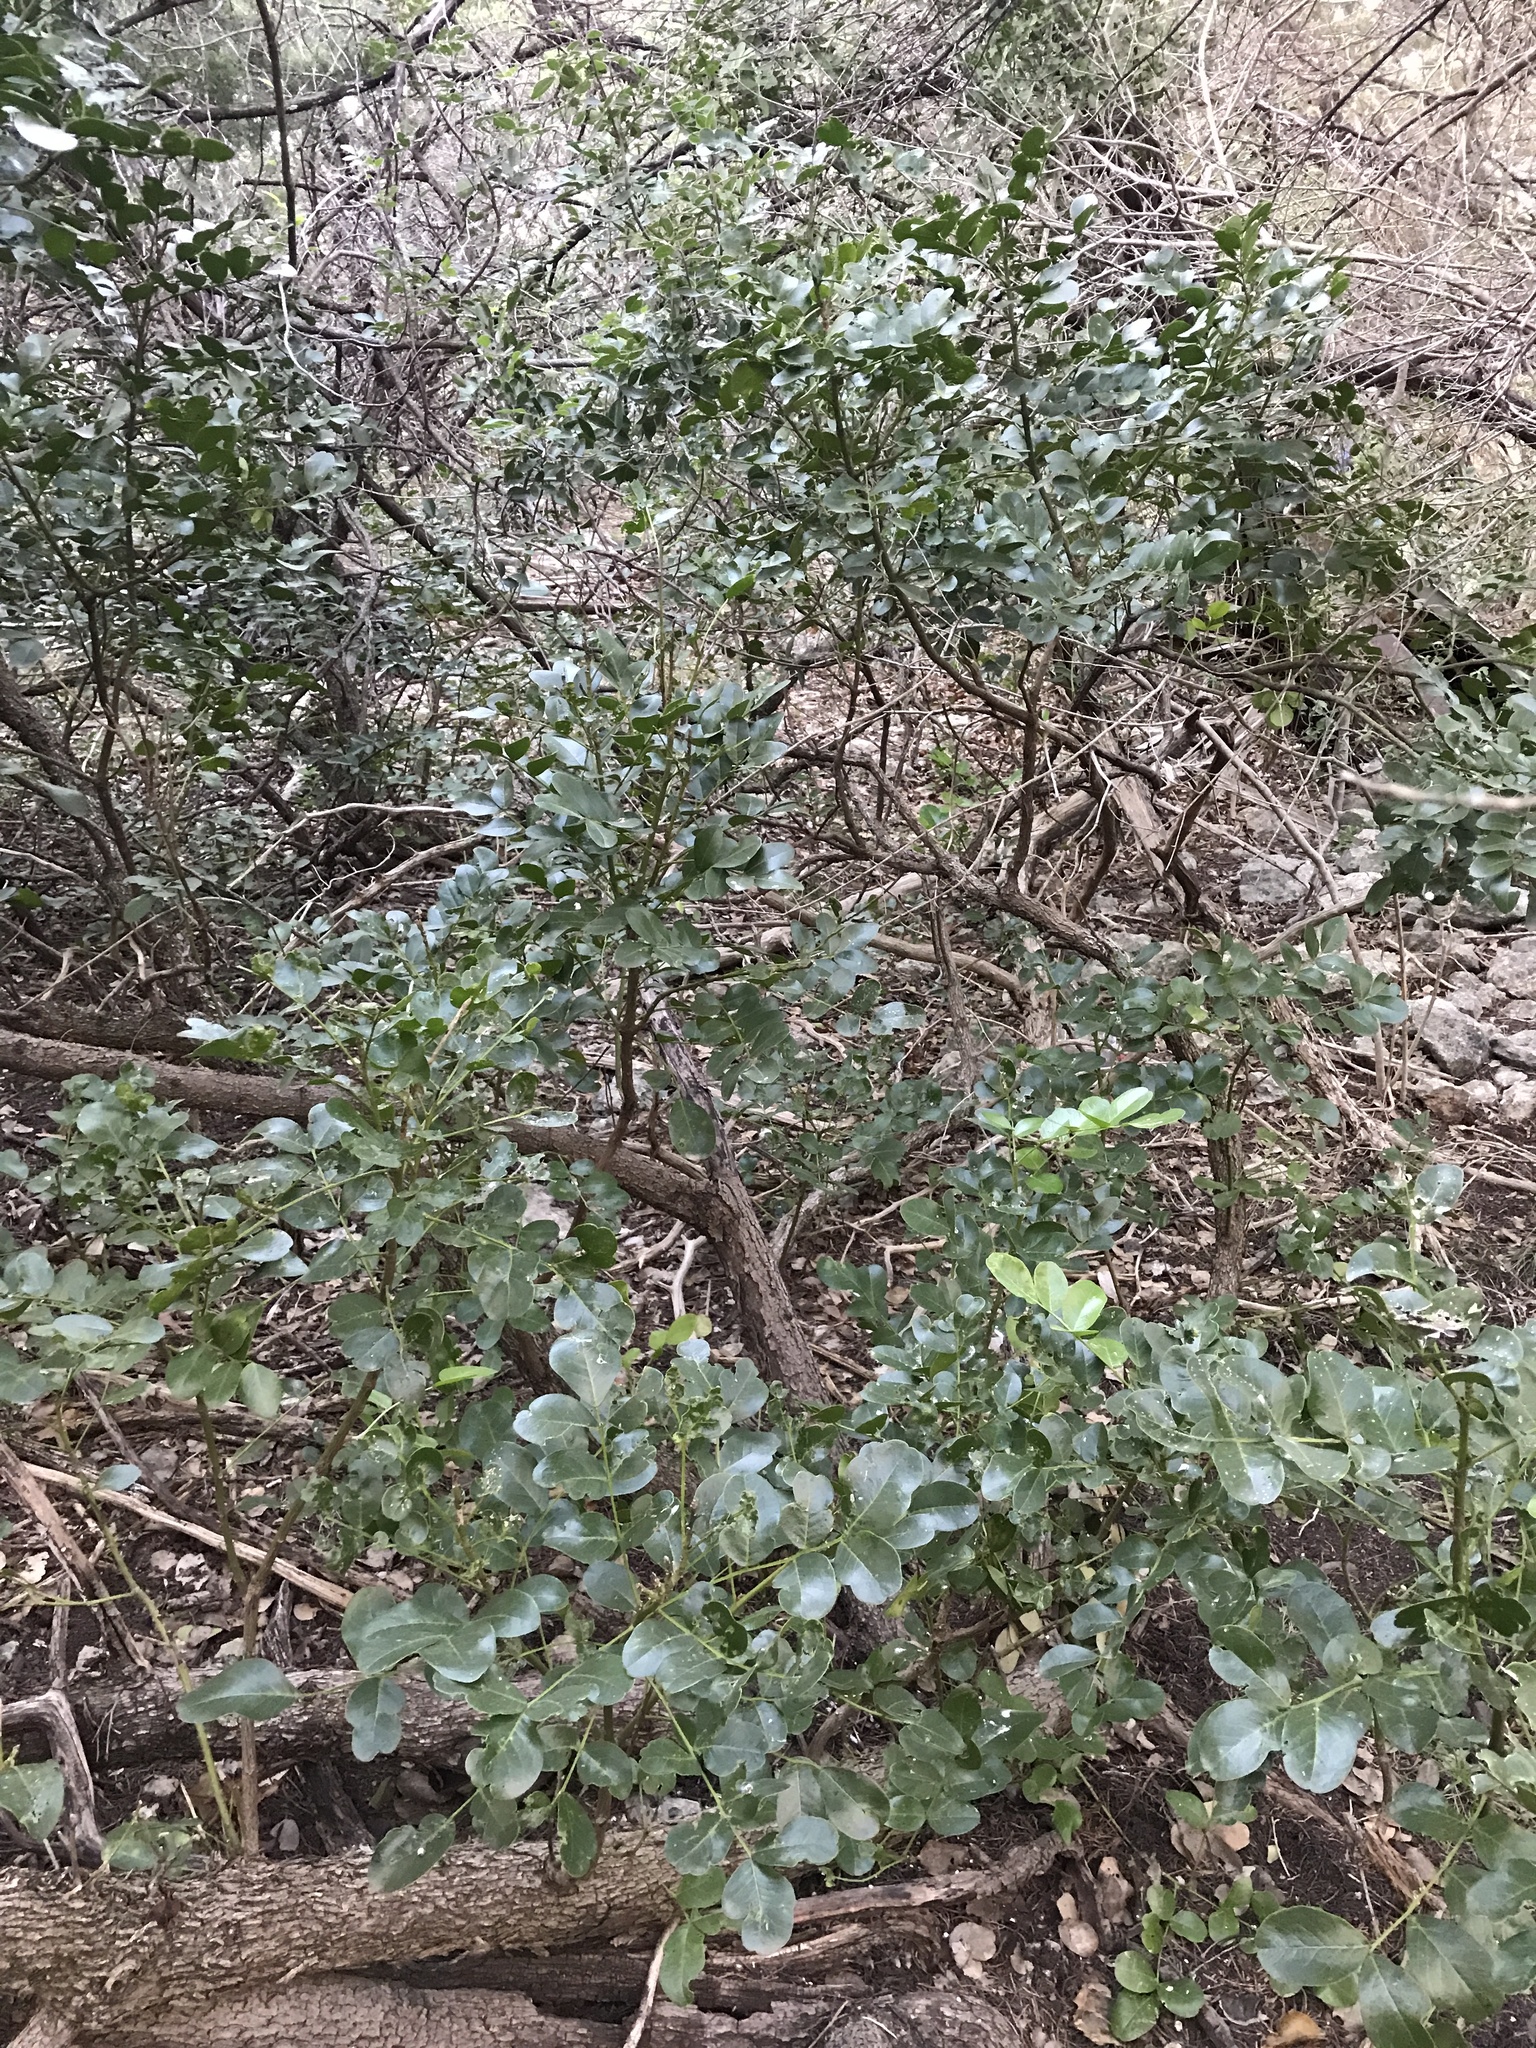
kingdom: Plantae
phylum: Tracheophyta
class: Magnoliopsida
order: Fabales
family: Fabaceae
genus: Dermatophyllum
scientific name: Dermatophyllum secundiflorum
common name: Texas-mountain-laurel
